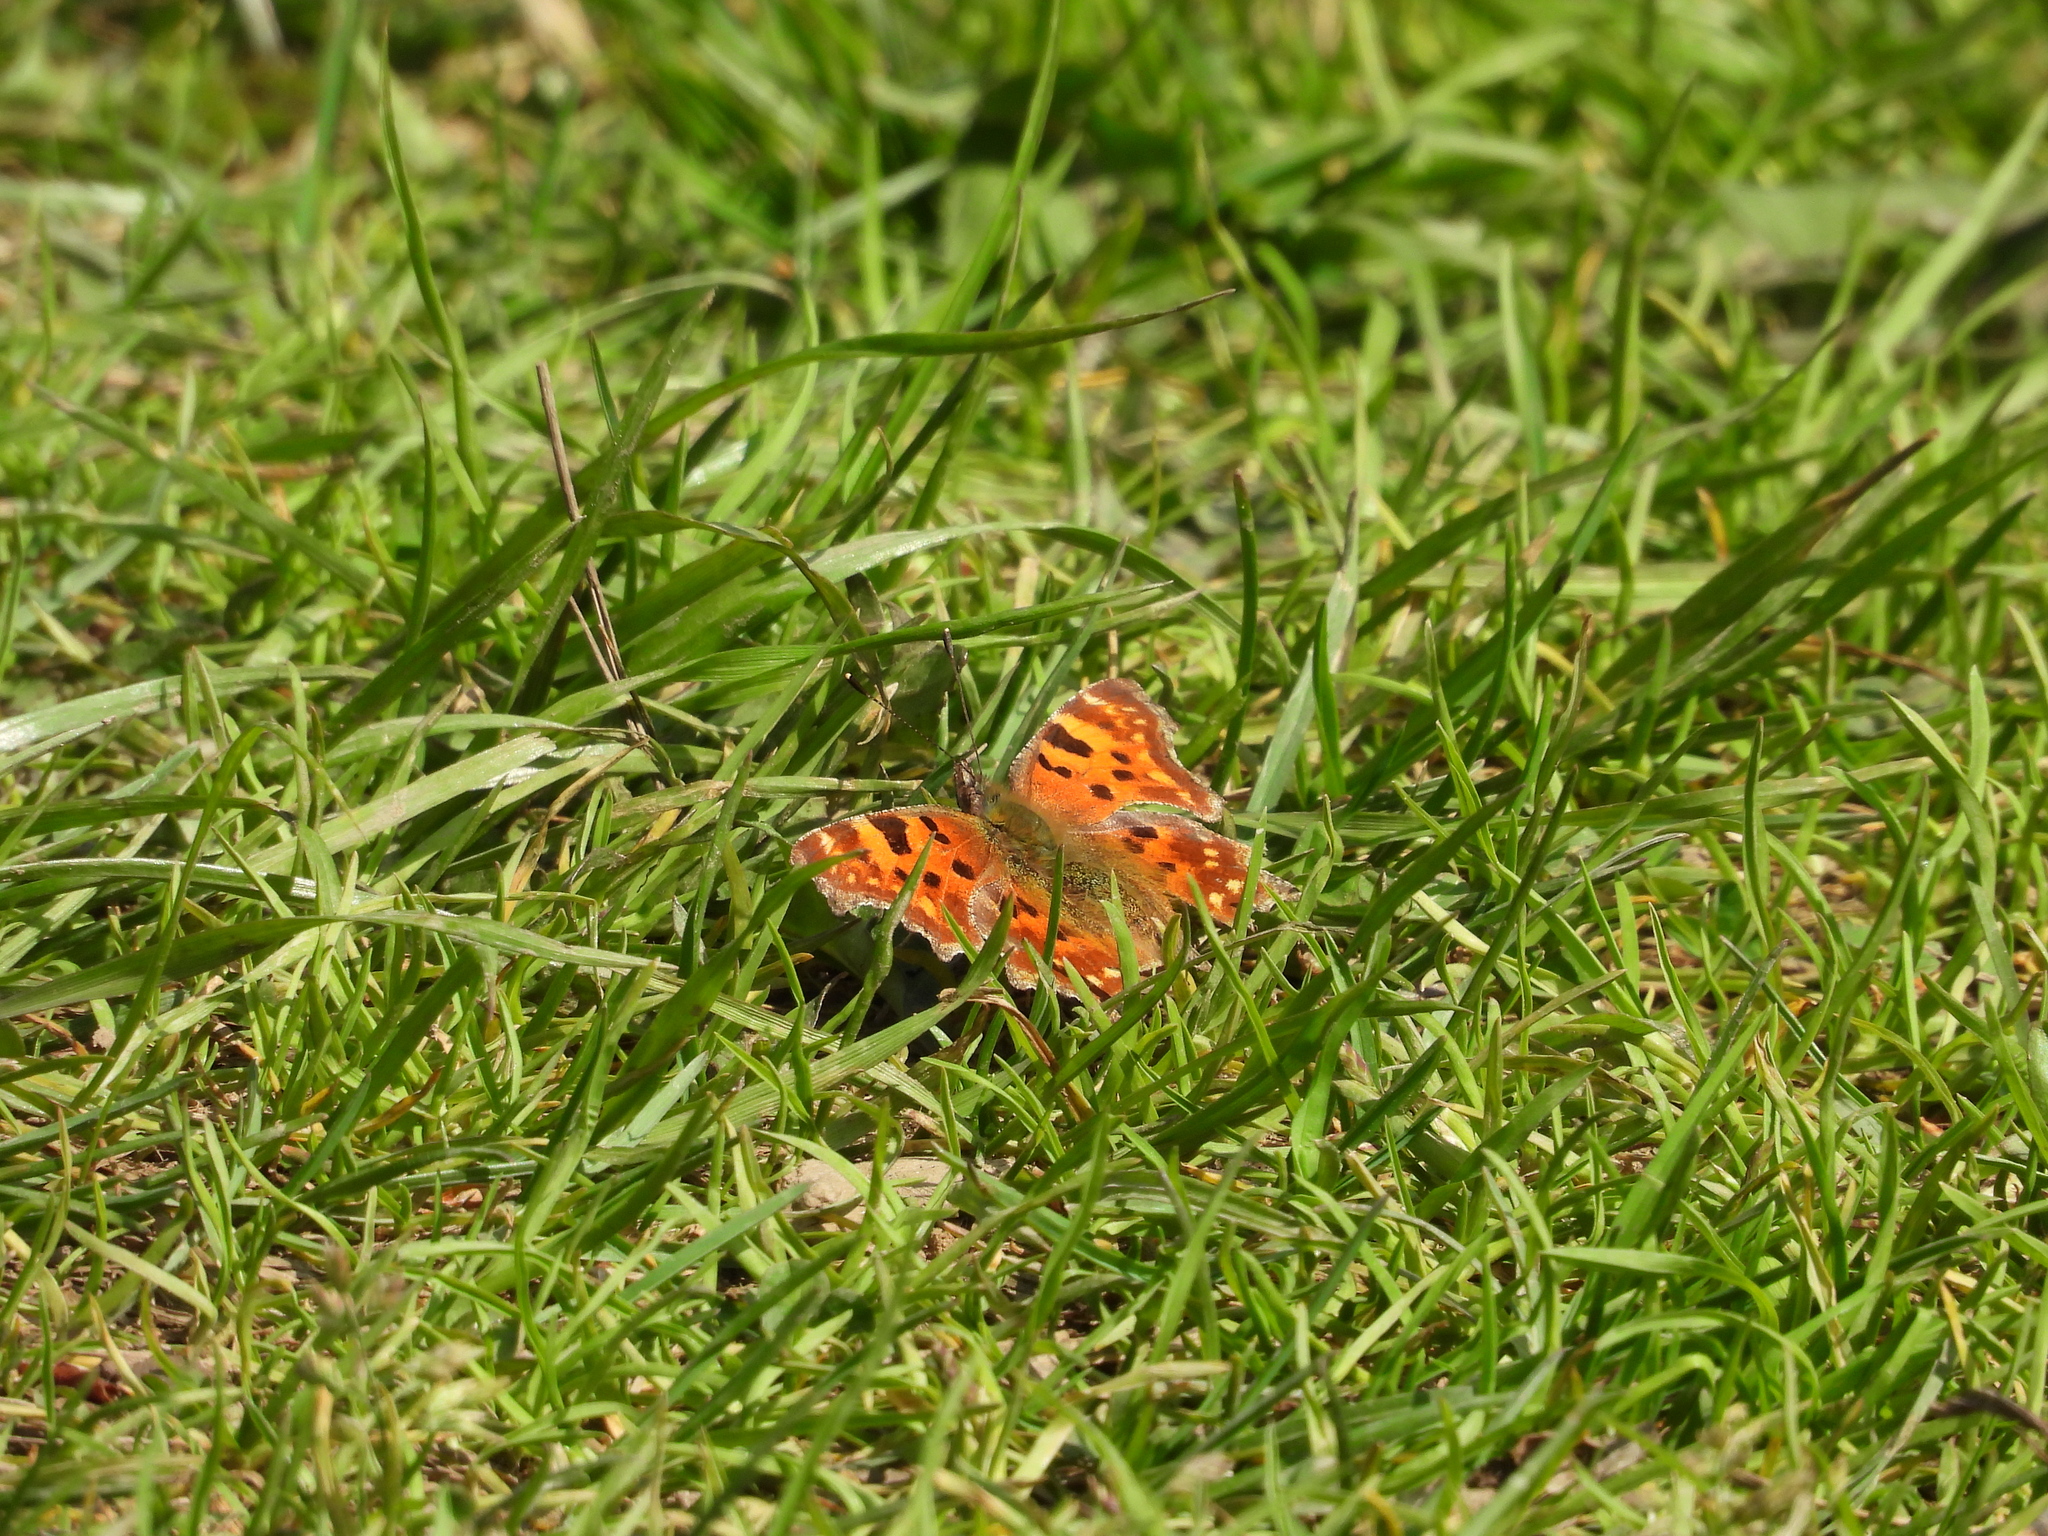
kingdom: Animalia
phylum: Arthropoda
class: Insecta
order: Lepidoptera
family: Nymphalidae
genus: Polygonia
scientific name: Polygonia c-album
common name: Comma
